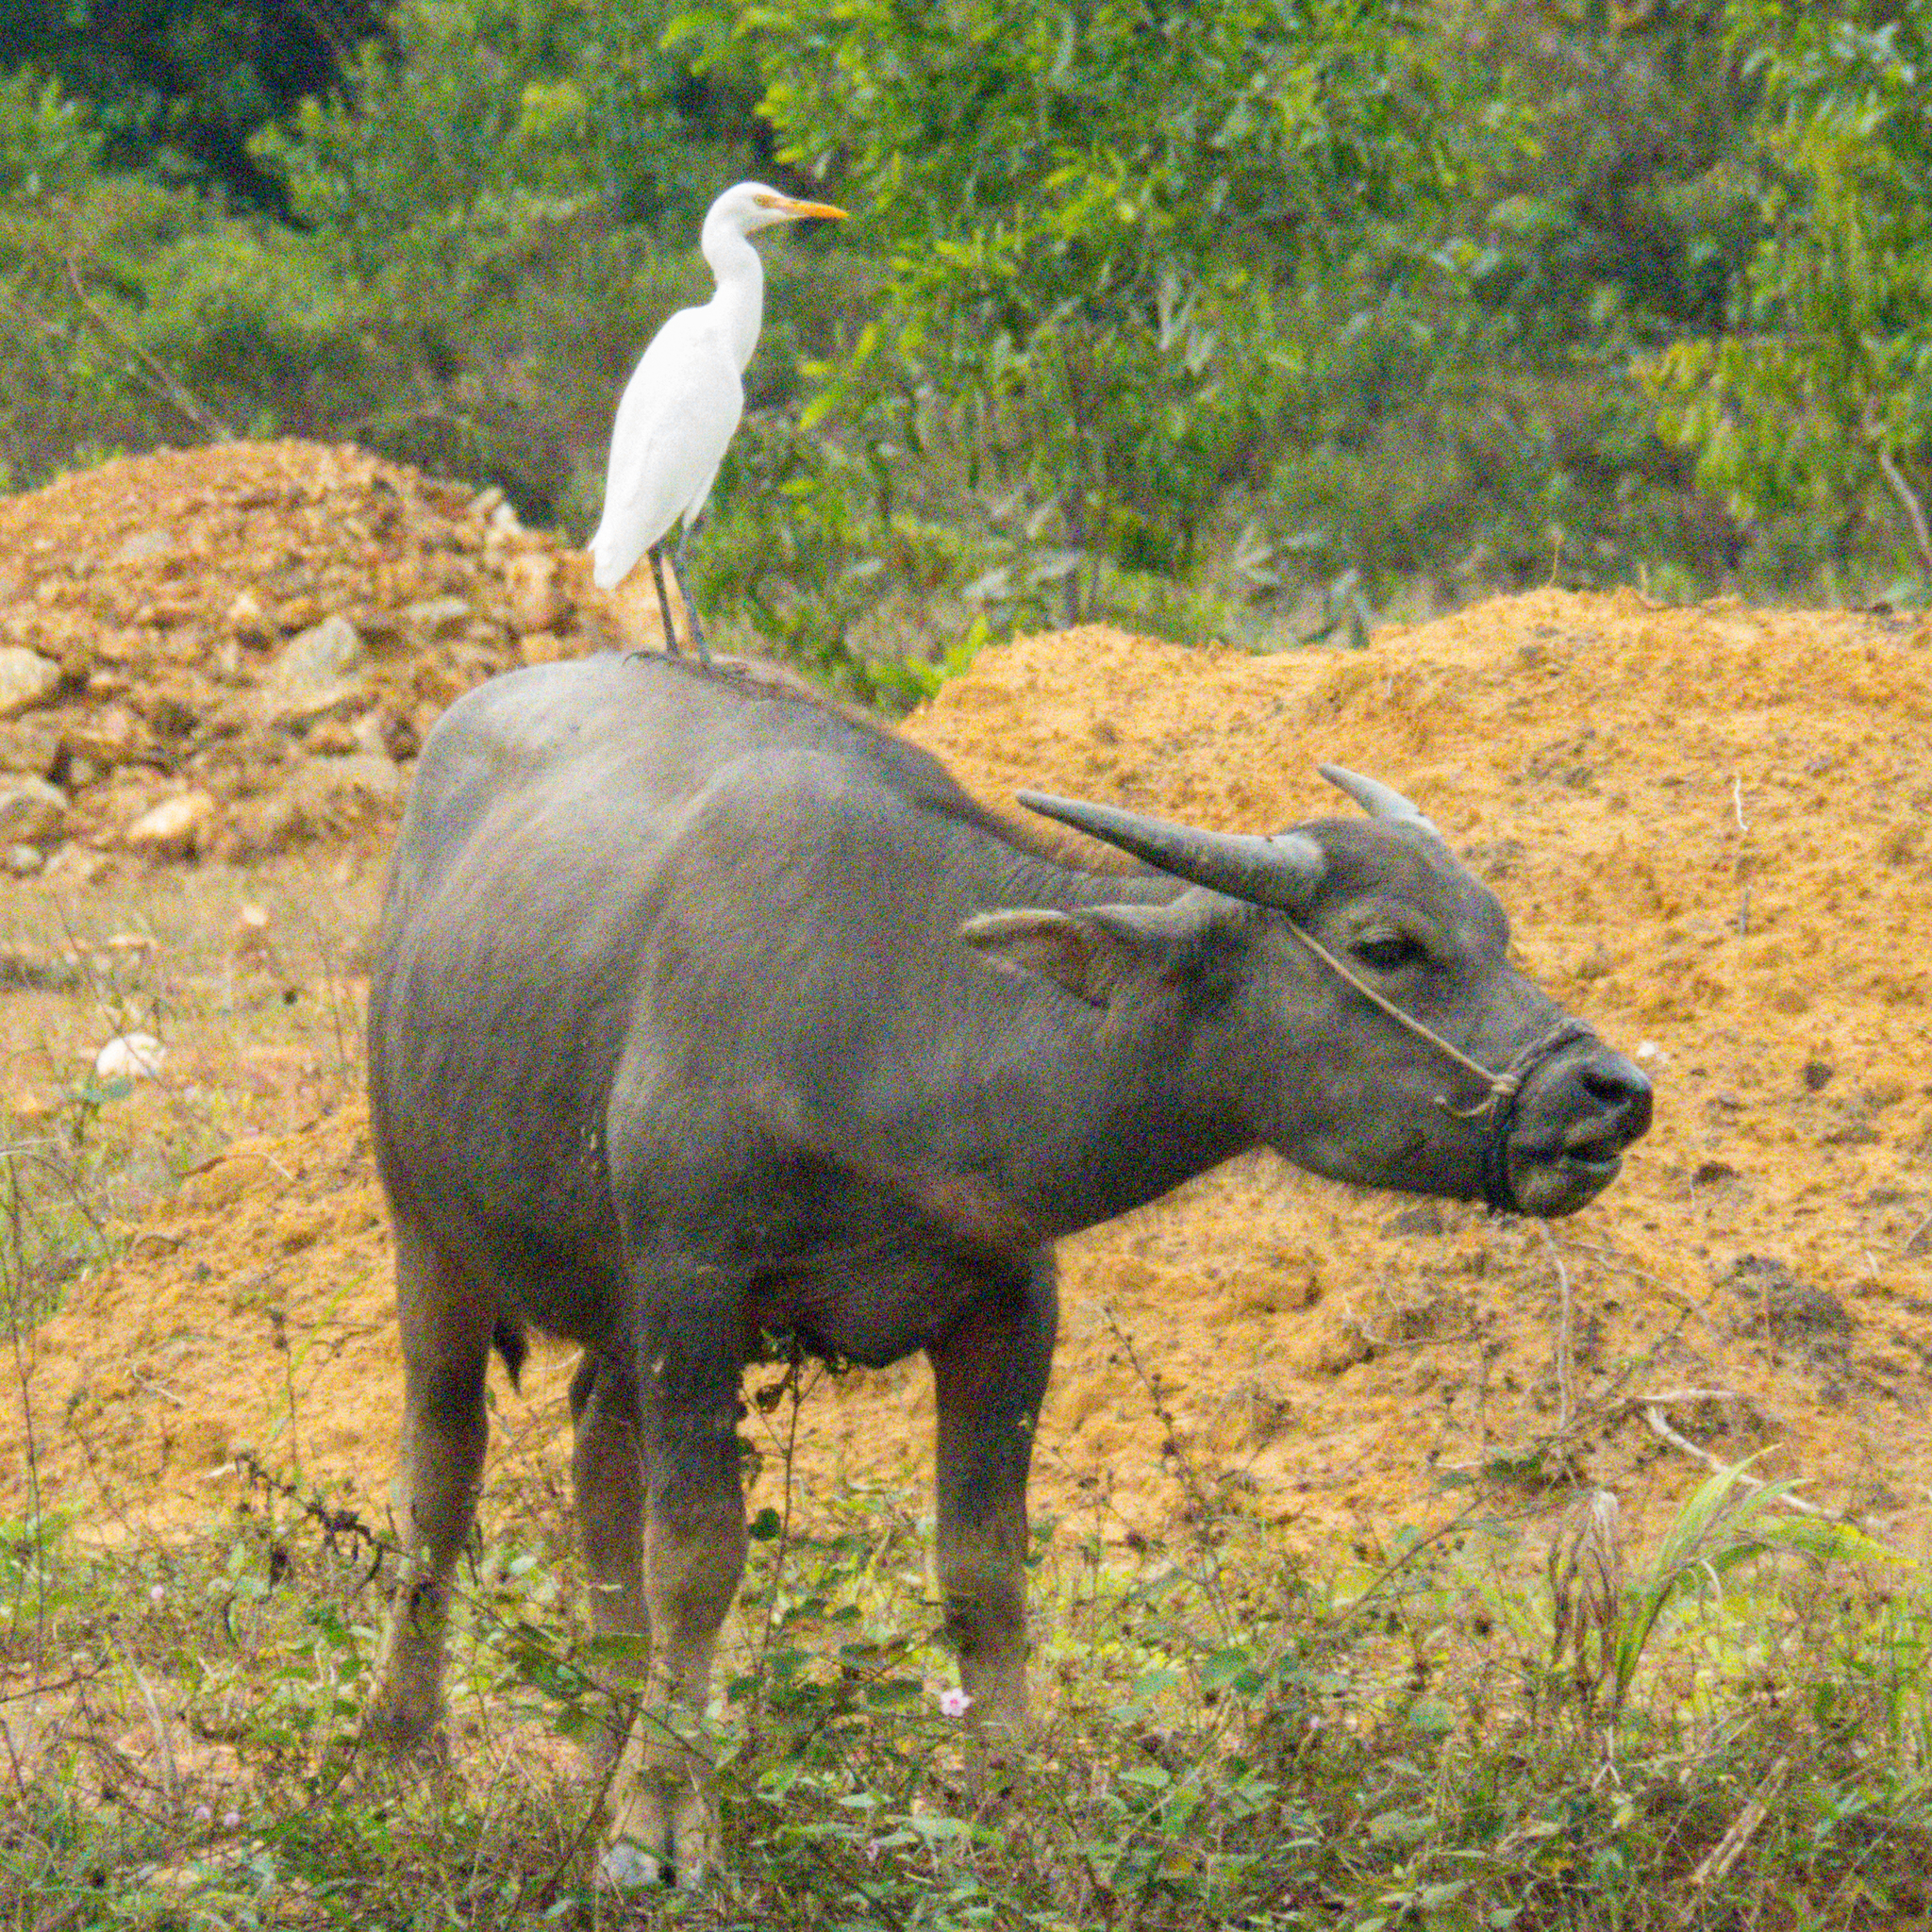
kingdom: Animalia
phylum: Chordata
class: Aves
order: Pelecaniformes
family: Ardeidae
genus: Bubulcus
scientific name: Bubulcus coromandus
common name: Eastern cattle egret
